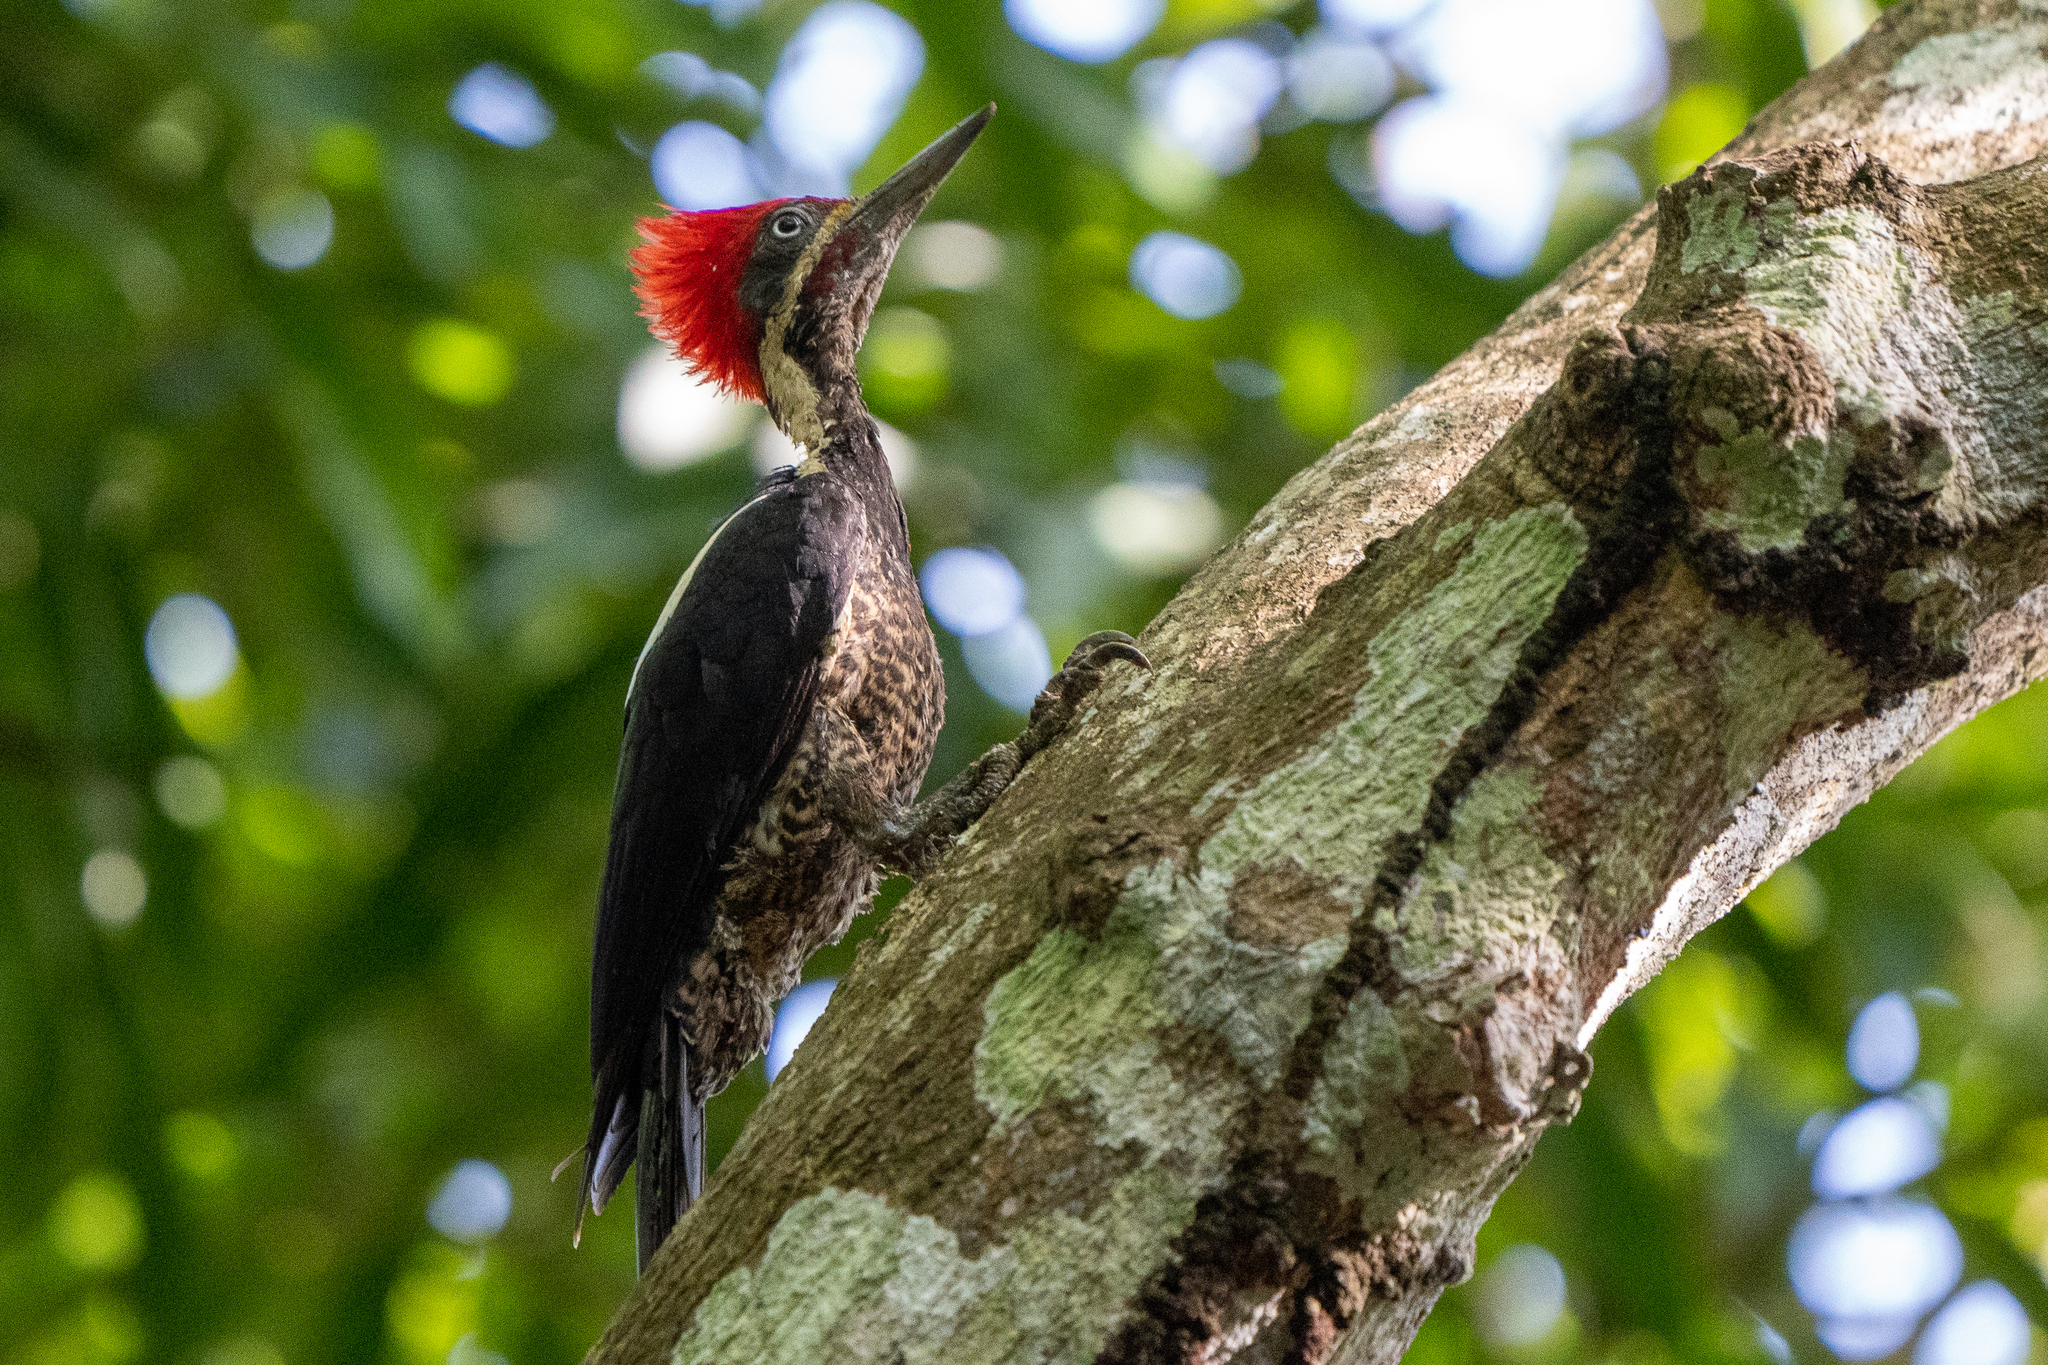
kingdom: Animalia
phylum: Chordata
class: Aves
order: Piciformes
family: Picidae
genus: Dryocopus
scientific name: Dryocopus lineatus
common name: Lineated woodpecker
